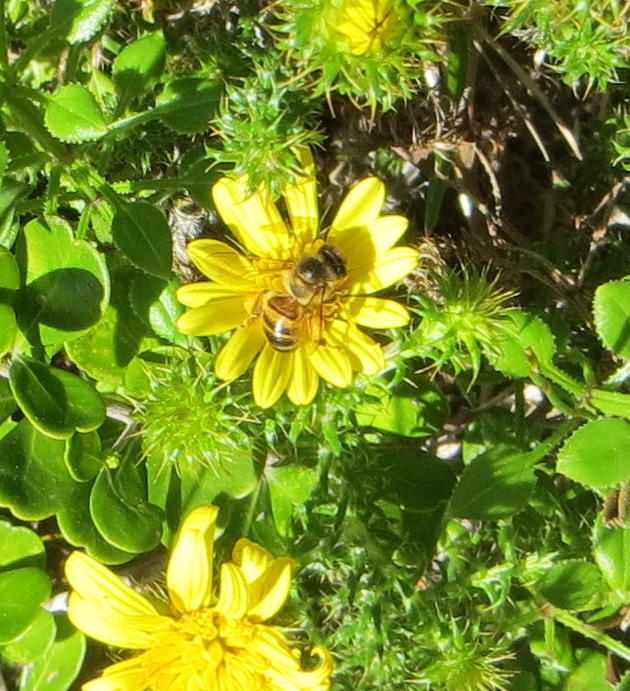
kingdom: Animalia
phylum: Arthropoda
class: Insecta
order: Hymenoptera
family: Apidae
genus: Apis
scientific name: Apis mellifera
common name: Honey bee
